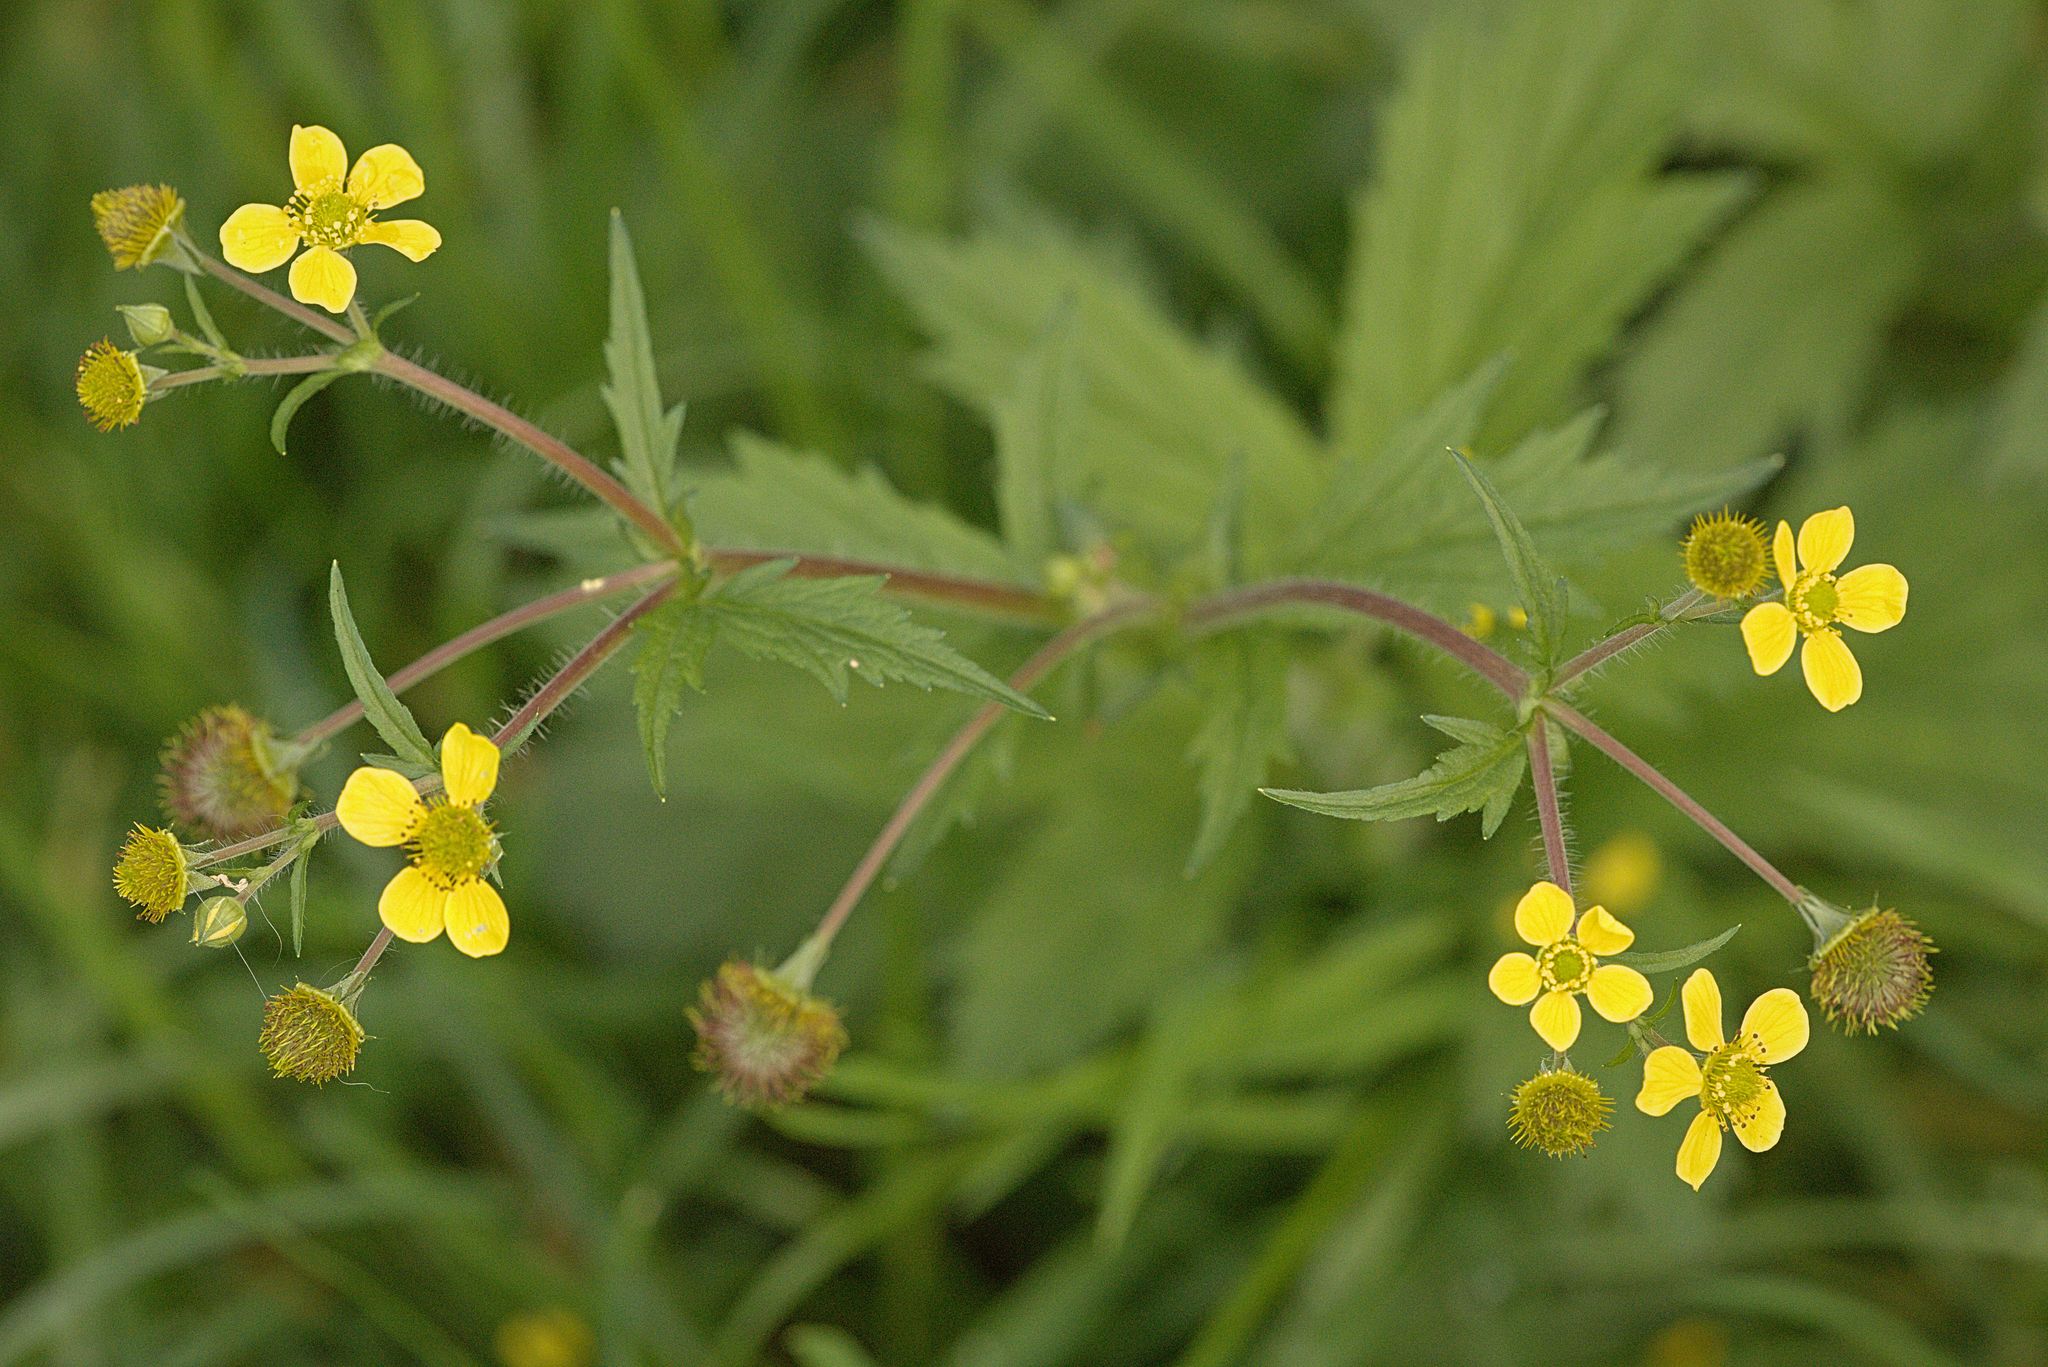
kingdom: Plantae
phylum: Tracheophyta
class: Magnoliopsida
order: Rosales
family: Rosaceae
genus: Geum
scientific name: Geum macrophyllum
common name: Large-leaved avens
